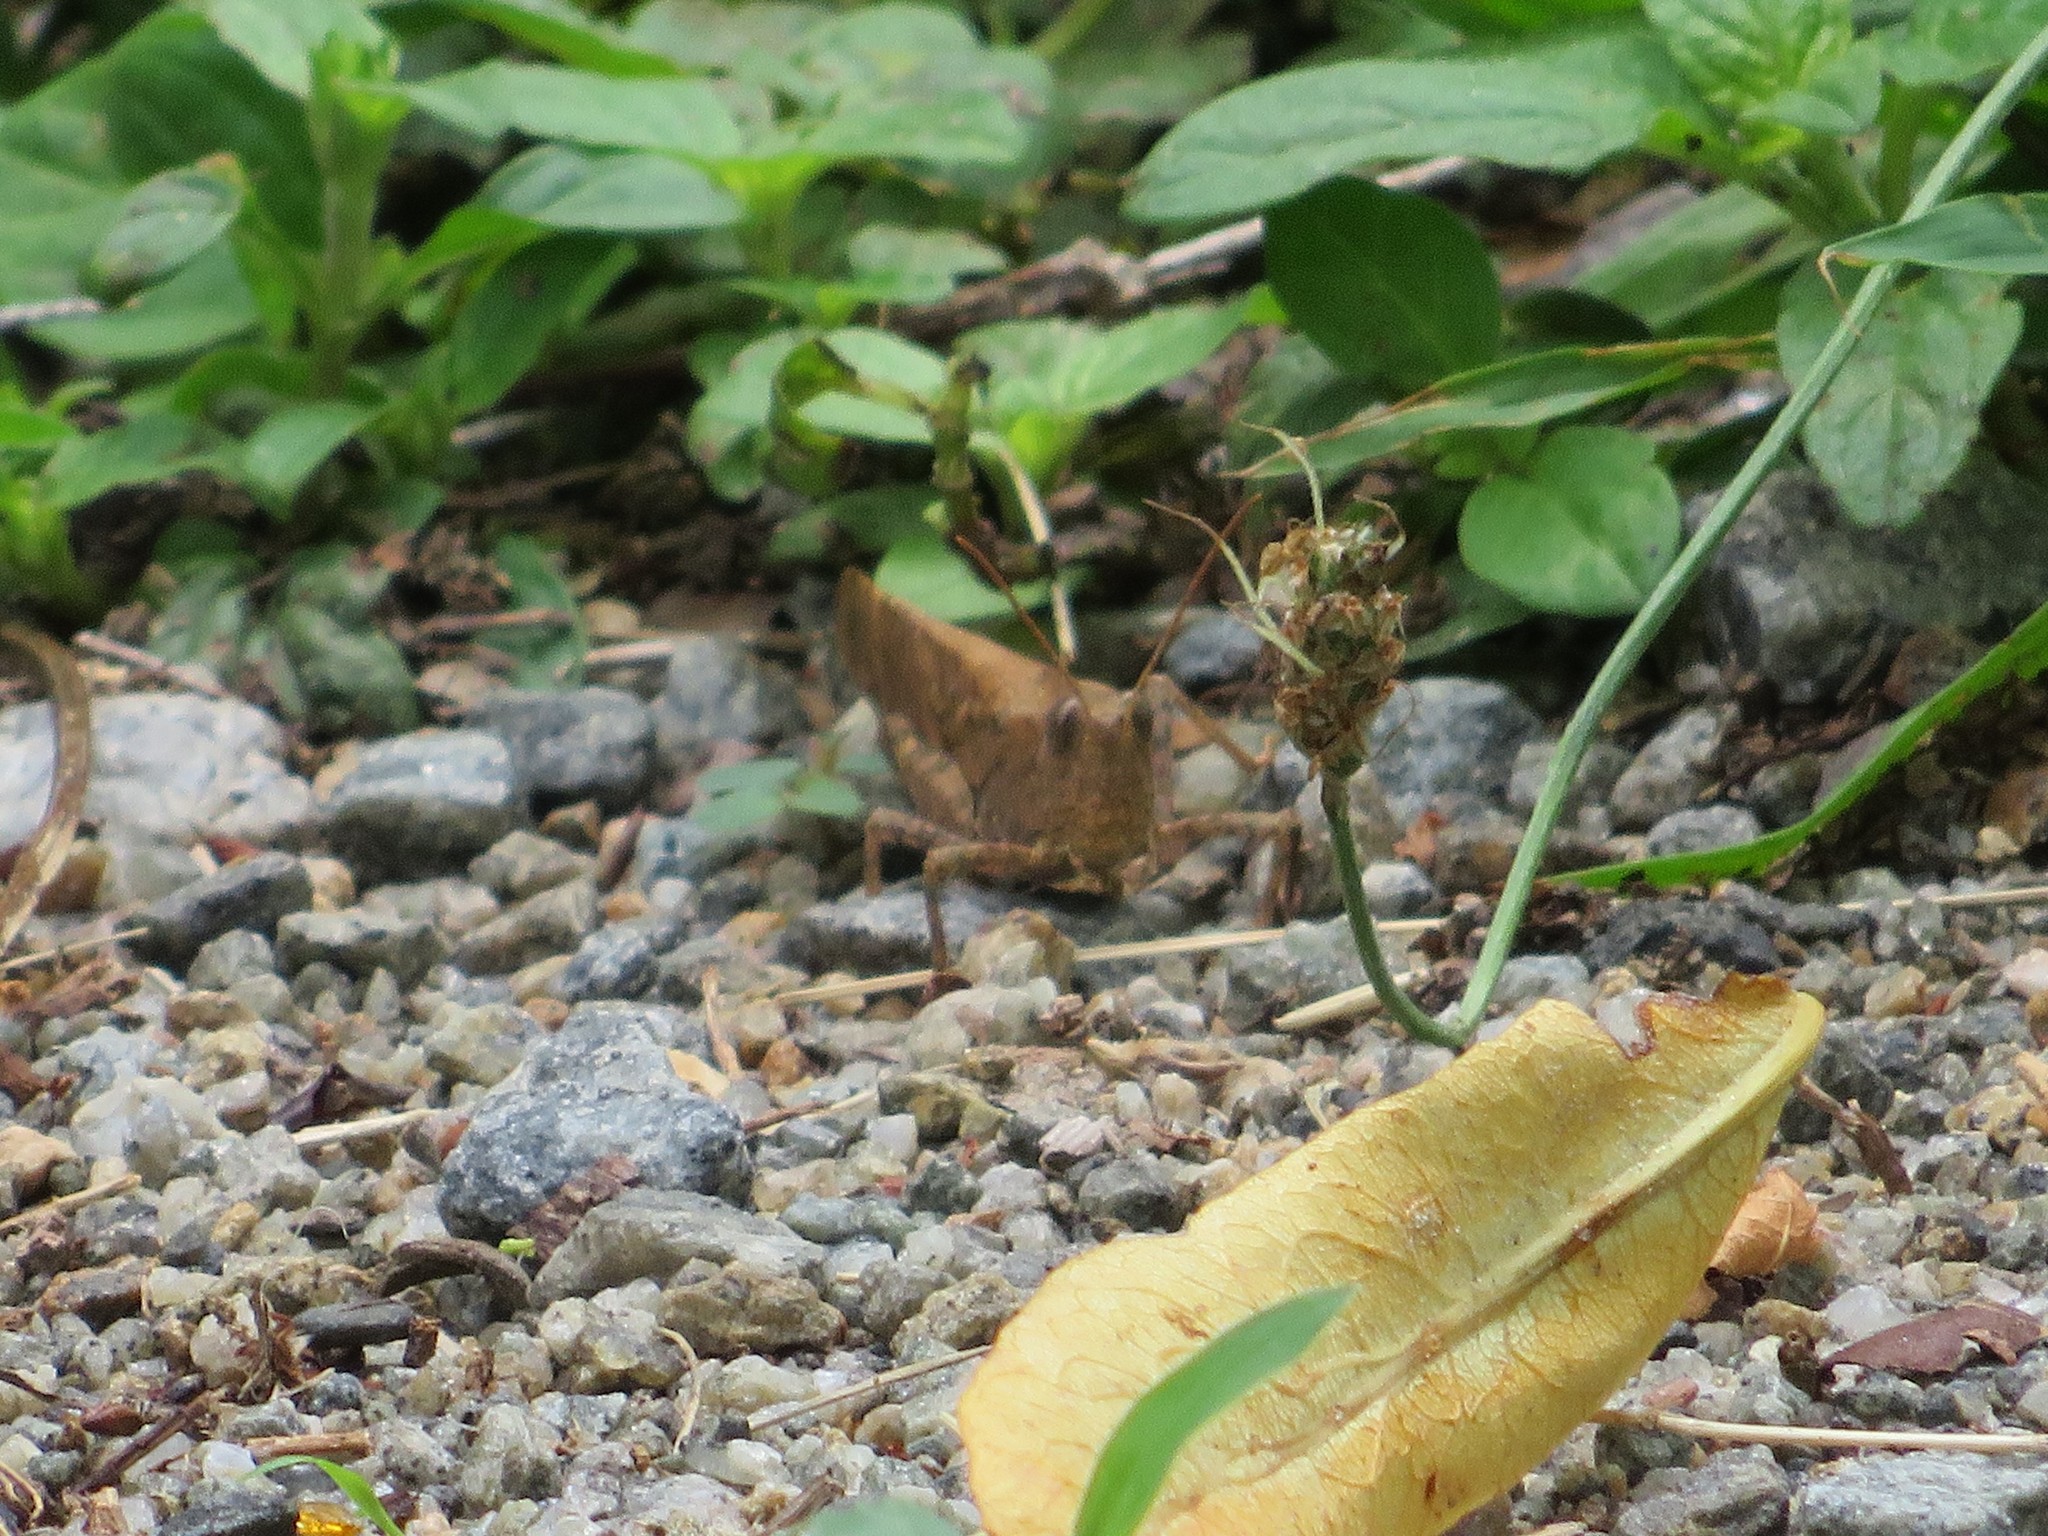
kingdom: Animalia
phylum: Arthropoda
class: Insecta
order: Orthoptera
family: Acrididae
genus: Dissosteira
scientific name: Dissosteira carolina
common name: Carolina grasshopper
